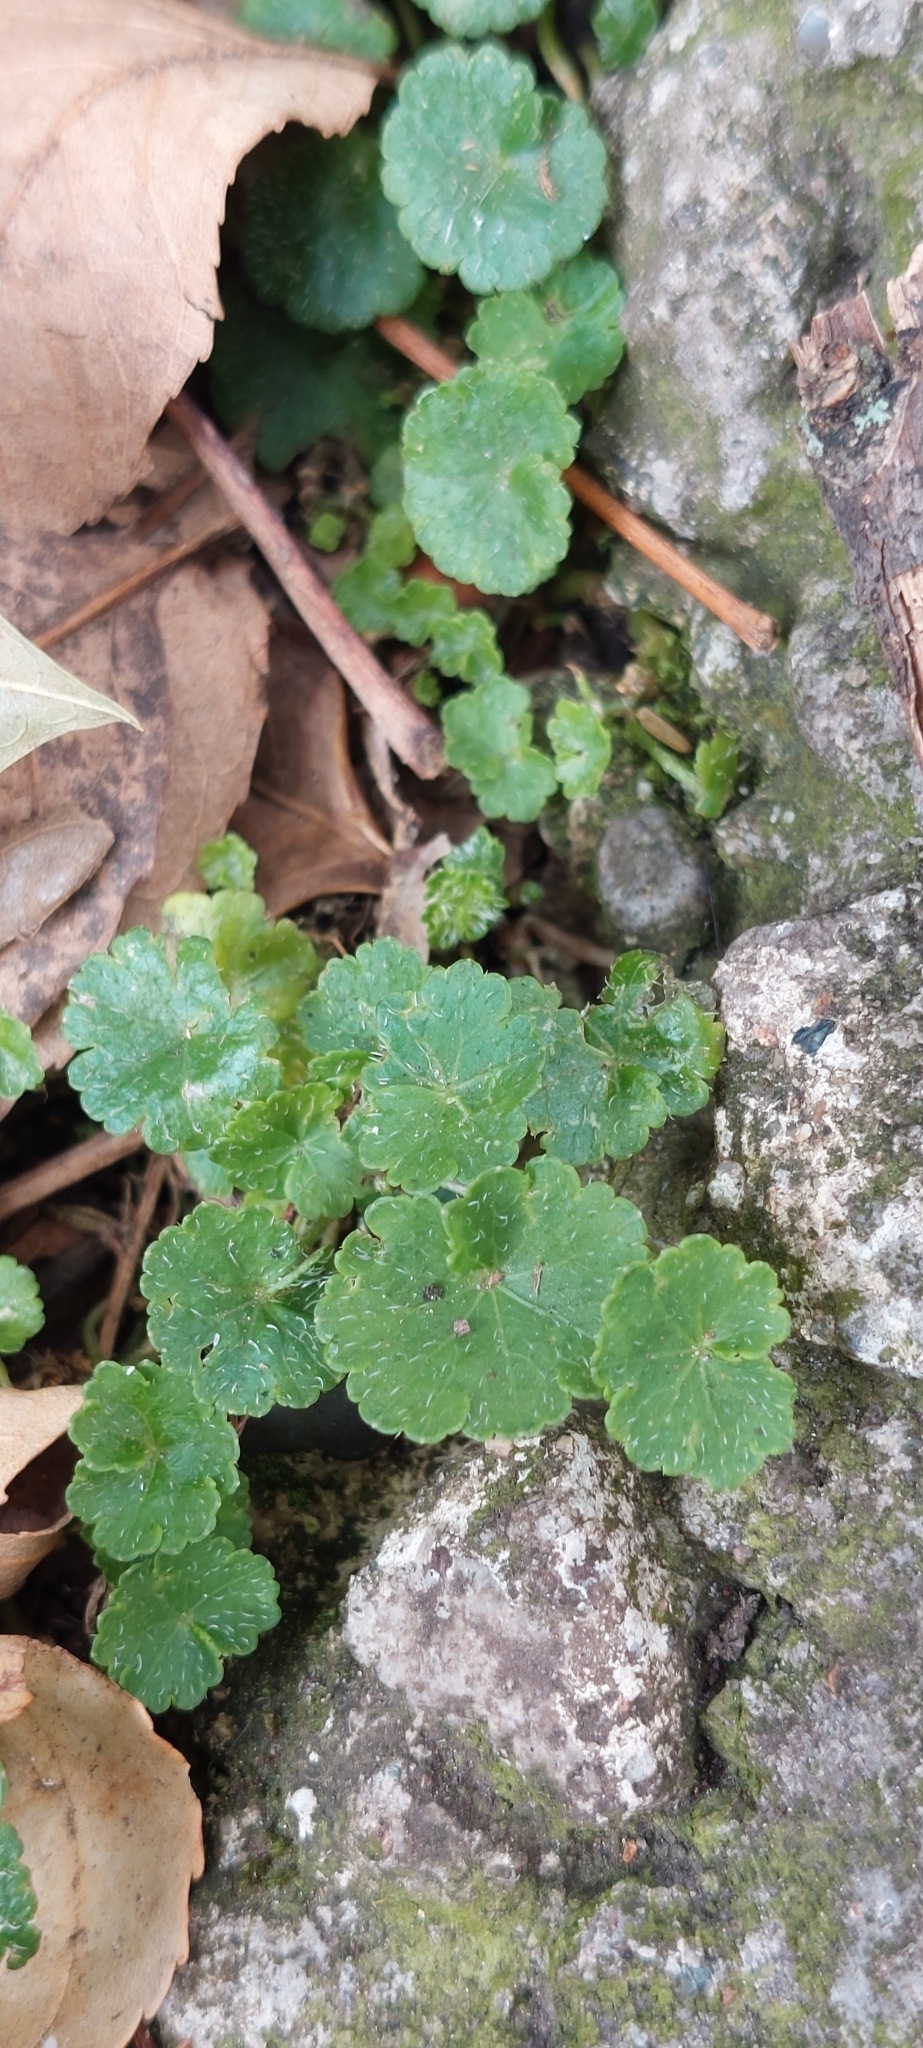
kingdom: Plantae
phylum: Tracheophyta
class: Magnoliopsida
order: Apiales
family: Araliaceae
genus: Hydrocotyle
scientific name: Hydrocotyle bonplandii
